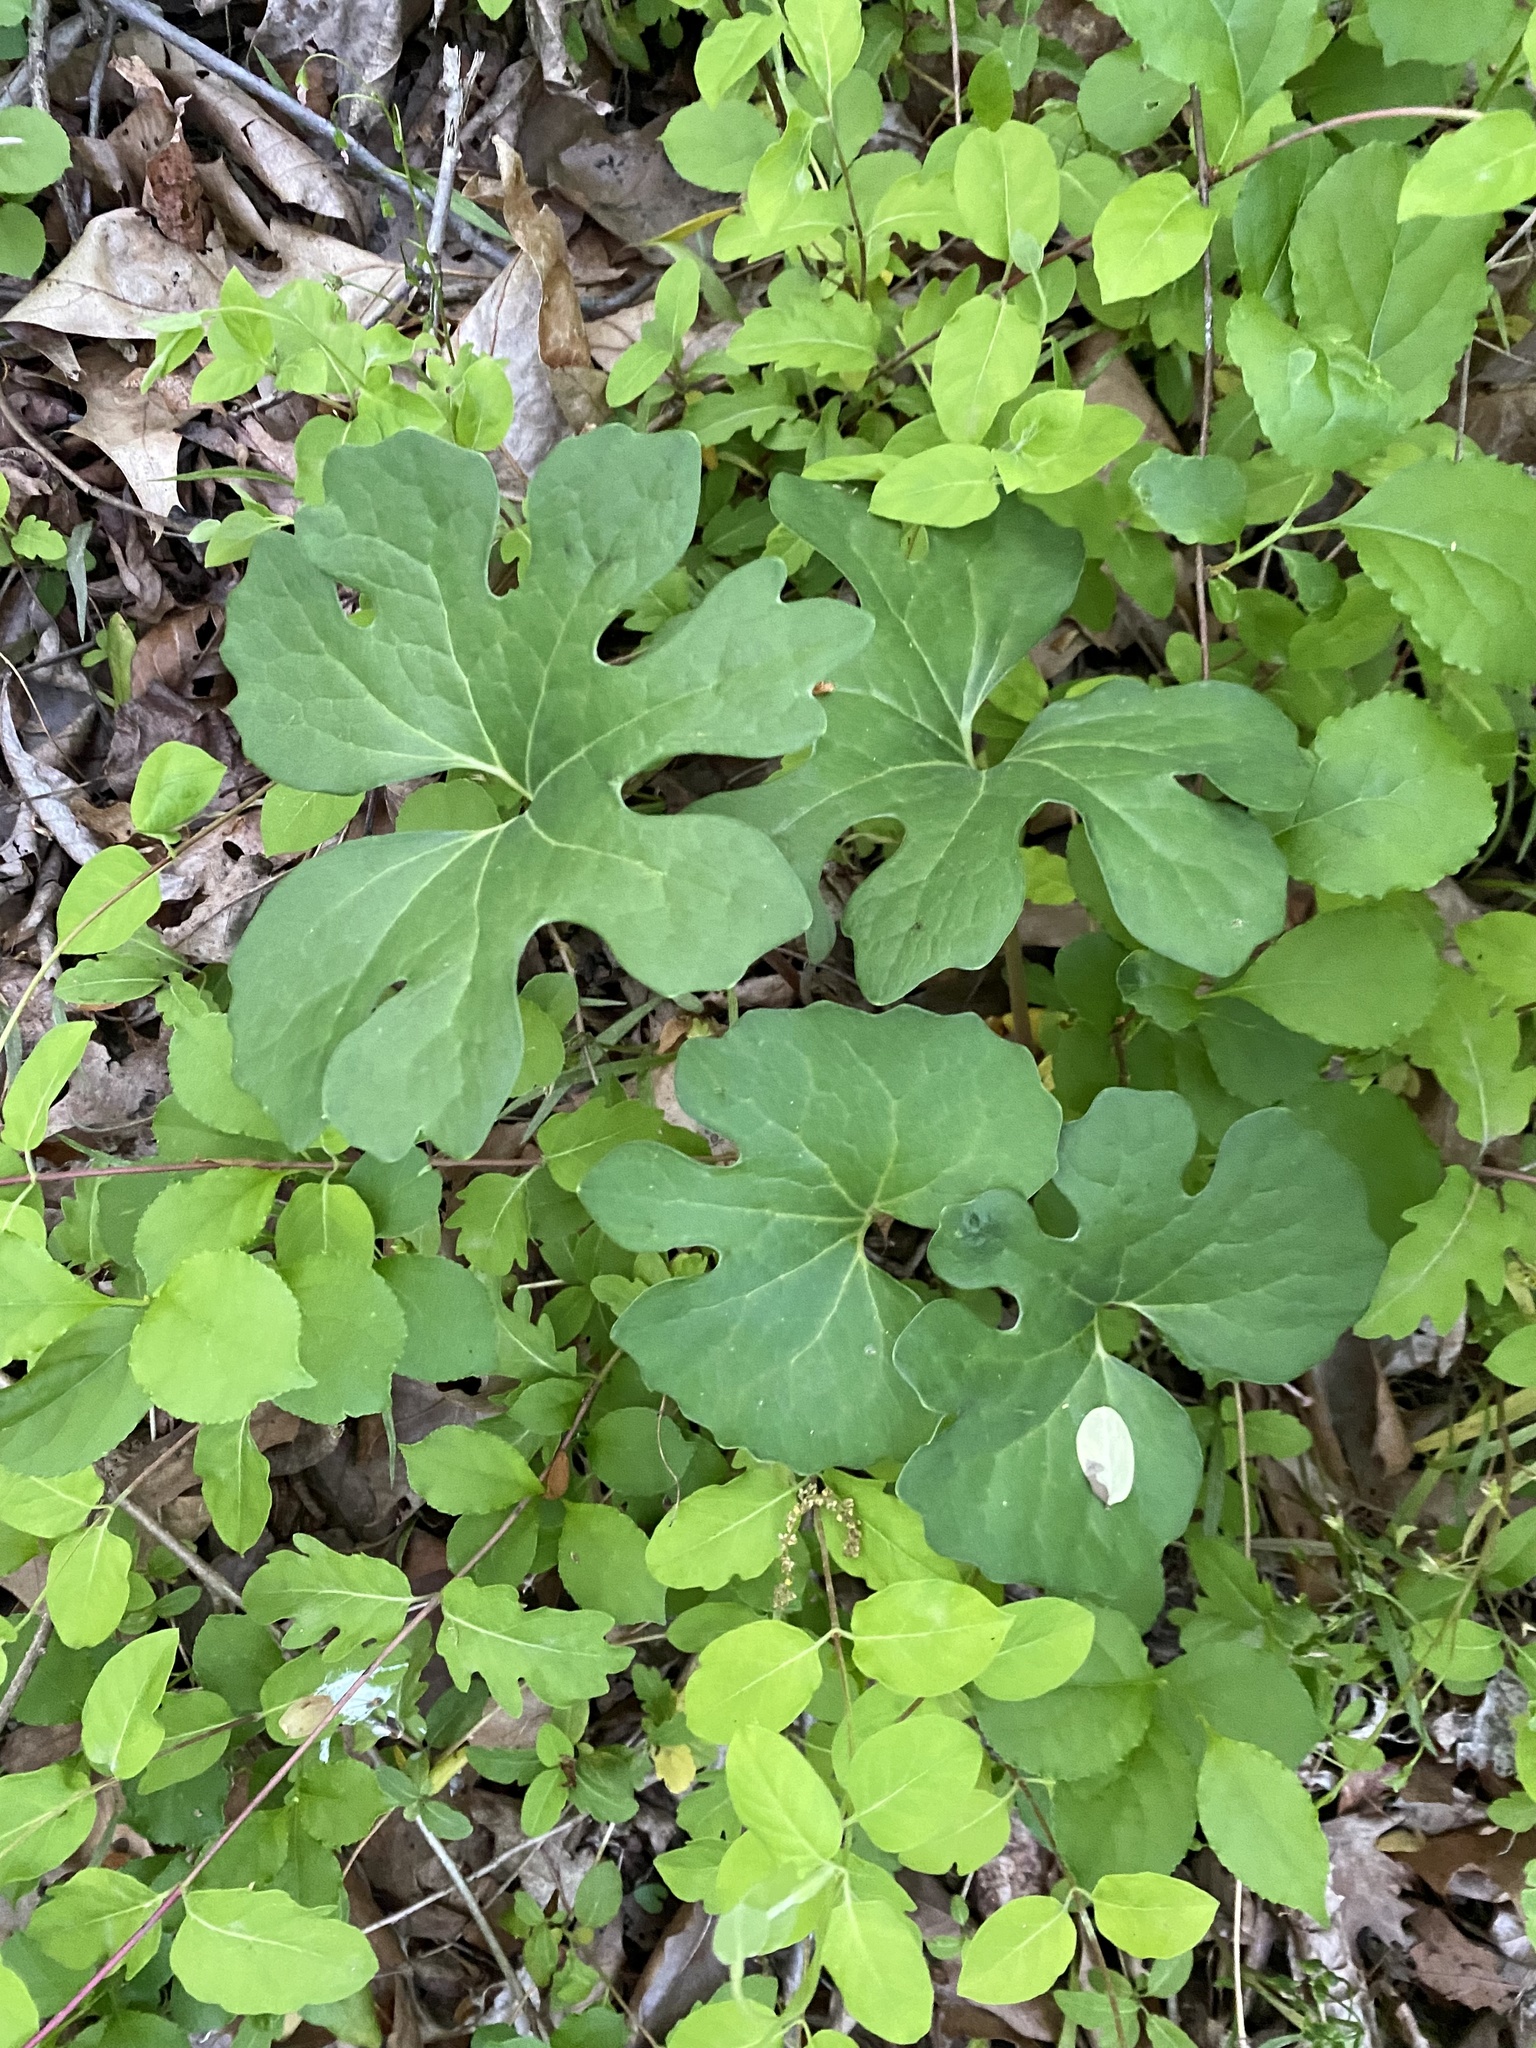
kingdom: Plantae
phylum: Tracheophyta
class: Magnoliopsida
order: Ranunculales
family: Papaveraceae
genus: Sanguinaria
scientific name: Sanguinaria canadensis
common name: Bloodroot
